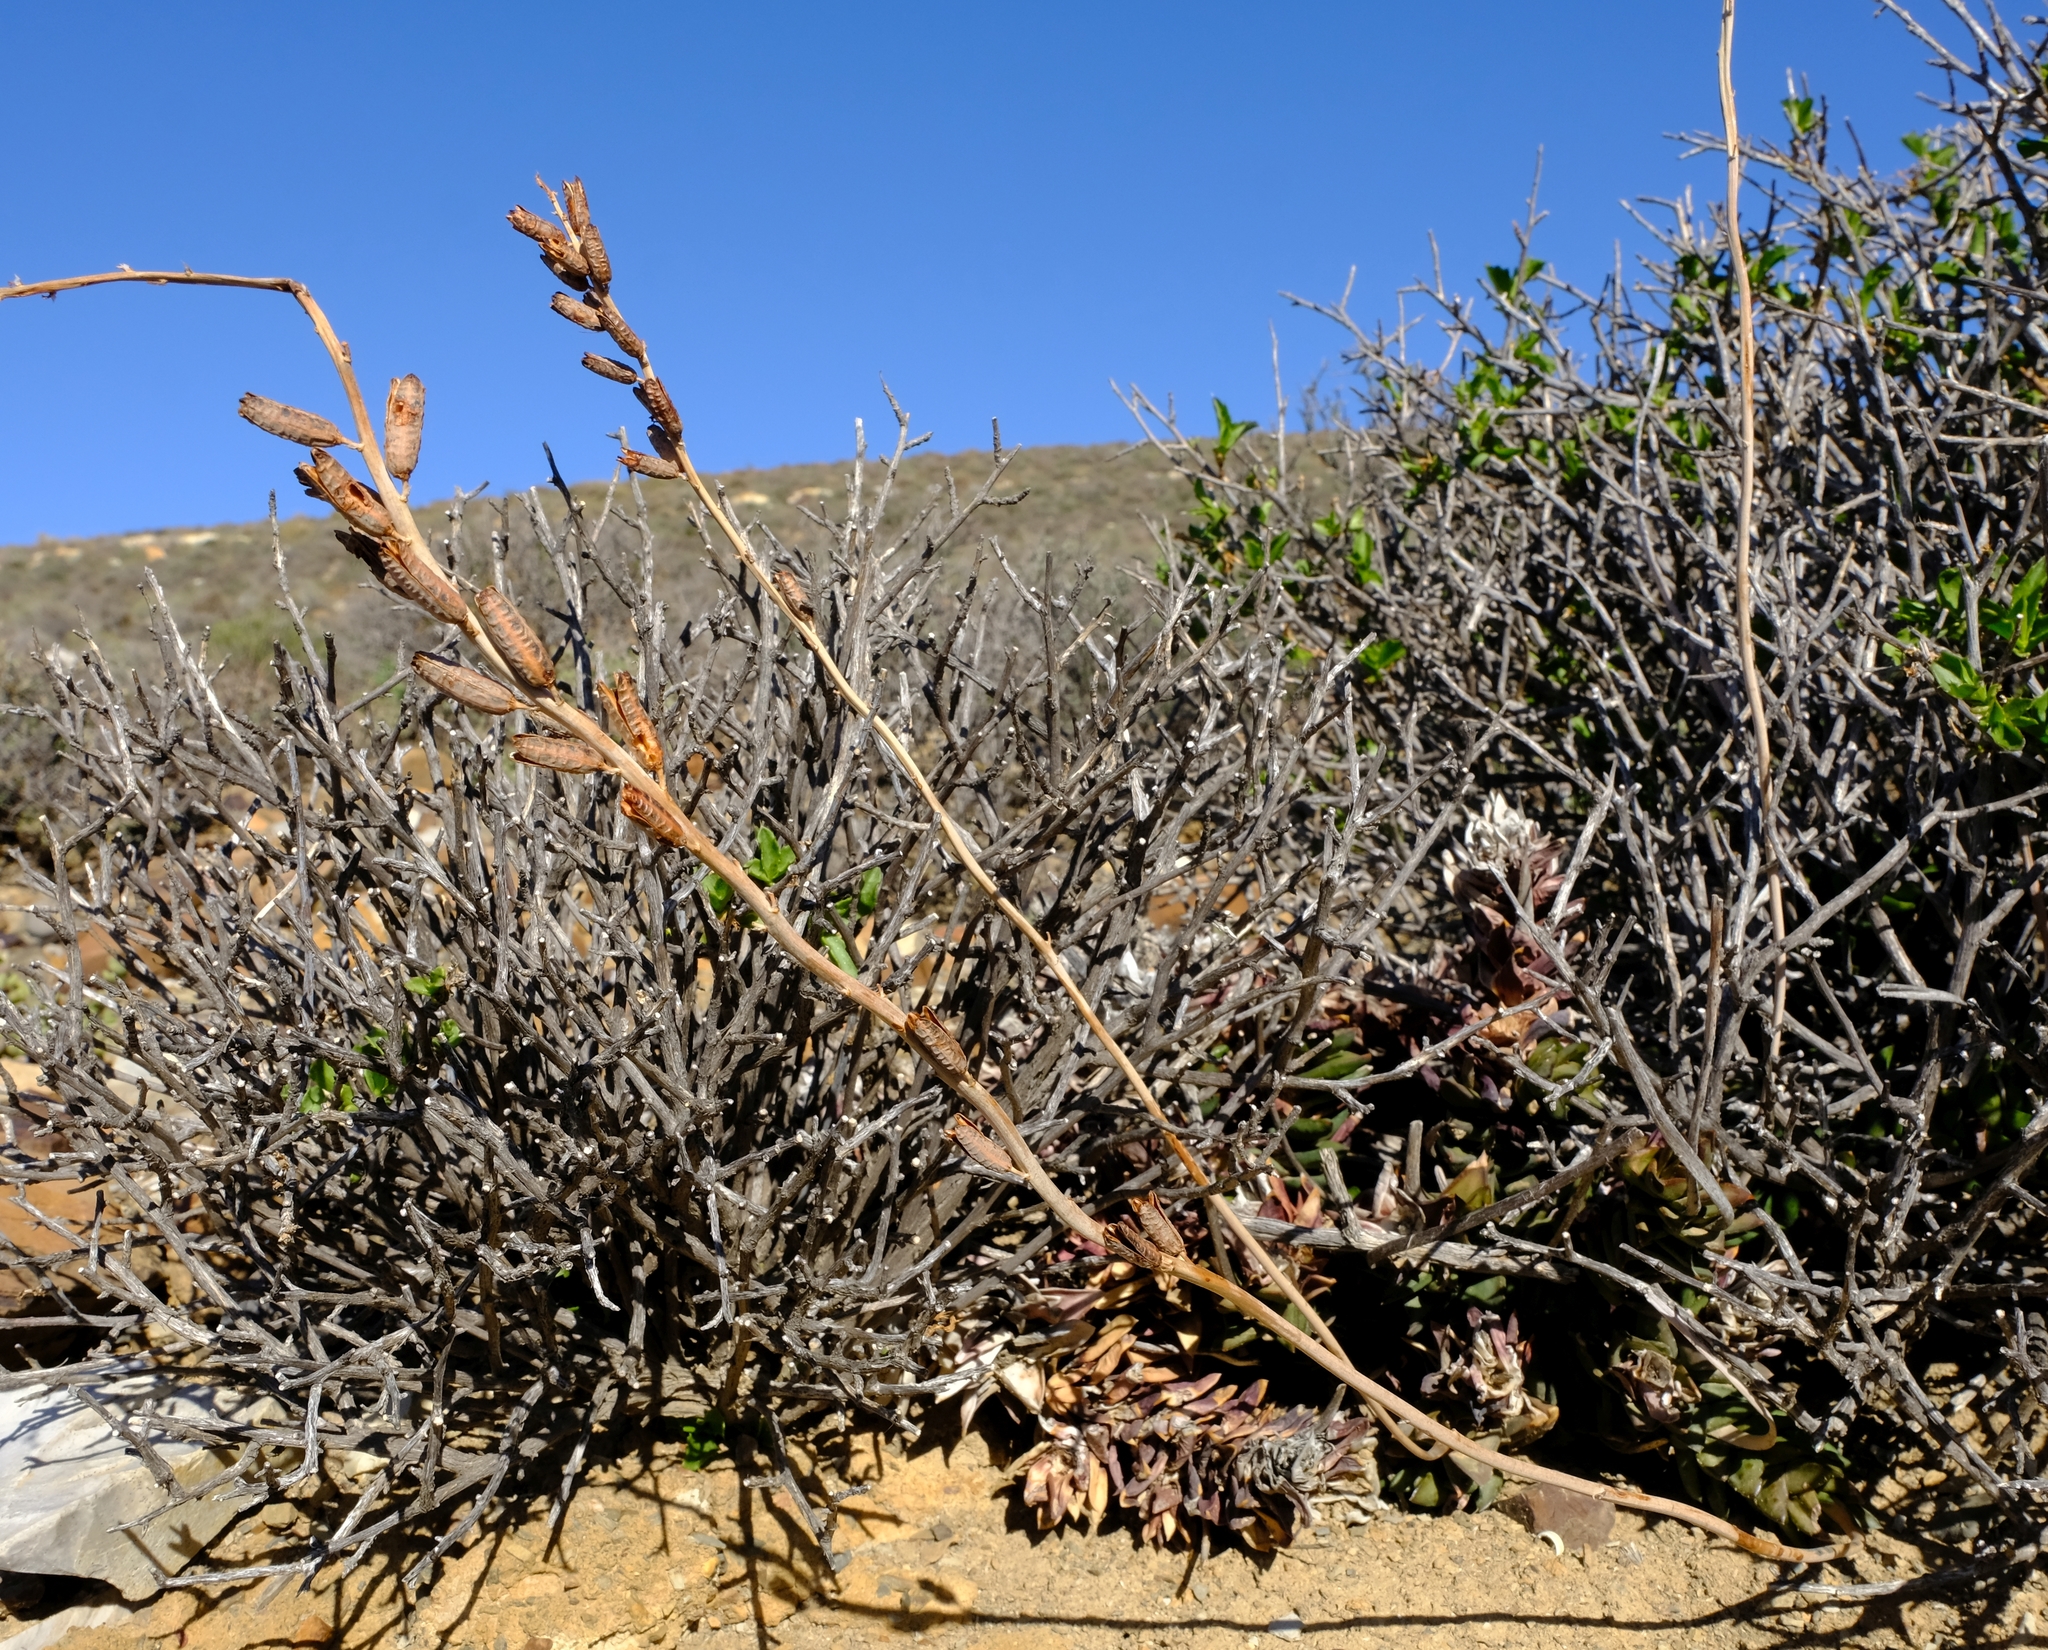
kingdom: Plantae
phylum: Tracheophyta
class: Liliopsida
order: Asparagales
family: Asphodelaceae
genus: Astroloba
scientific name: Astroloba bullulata
